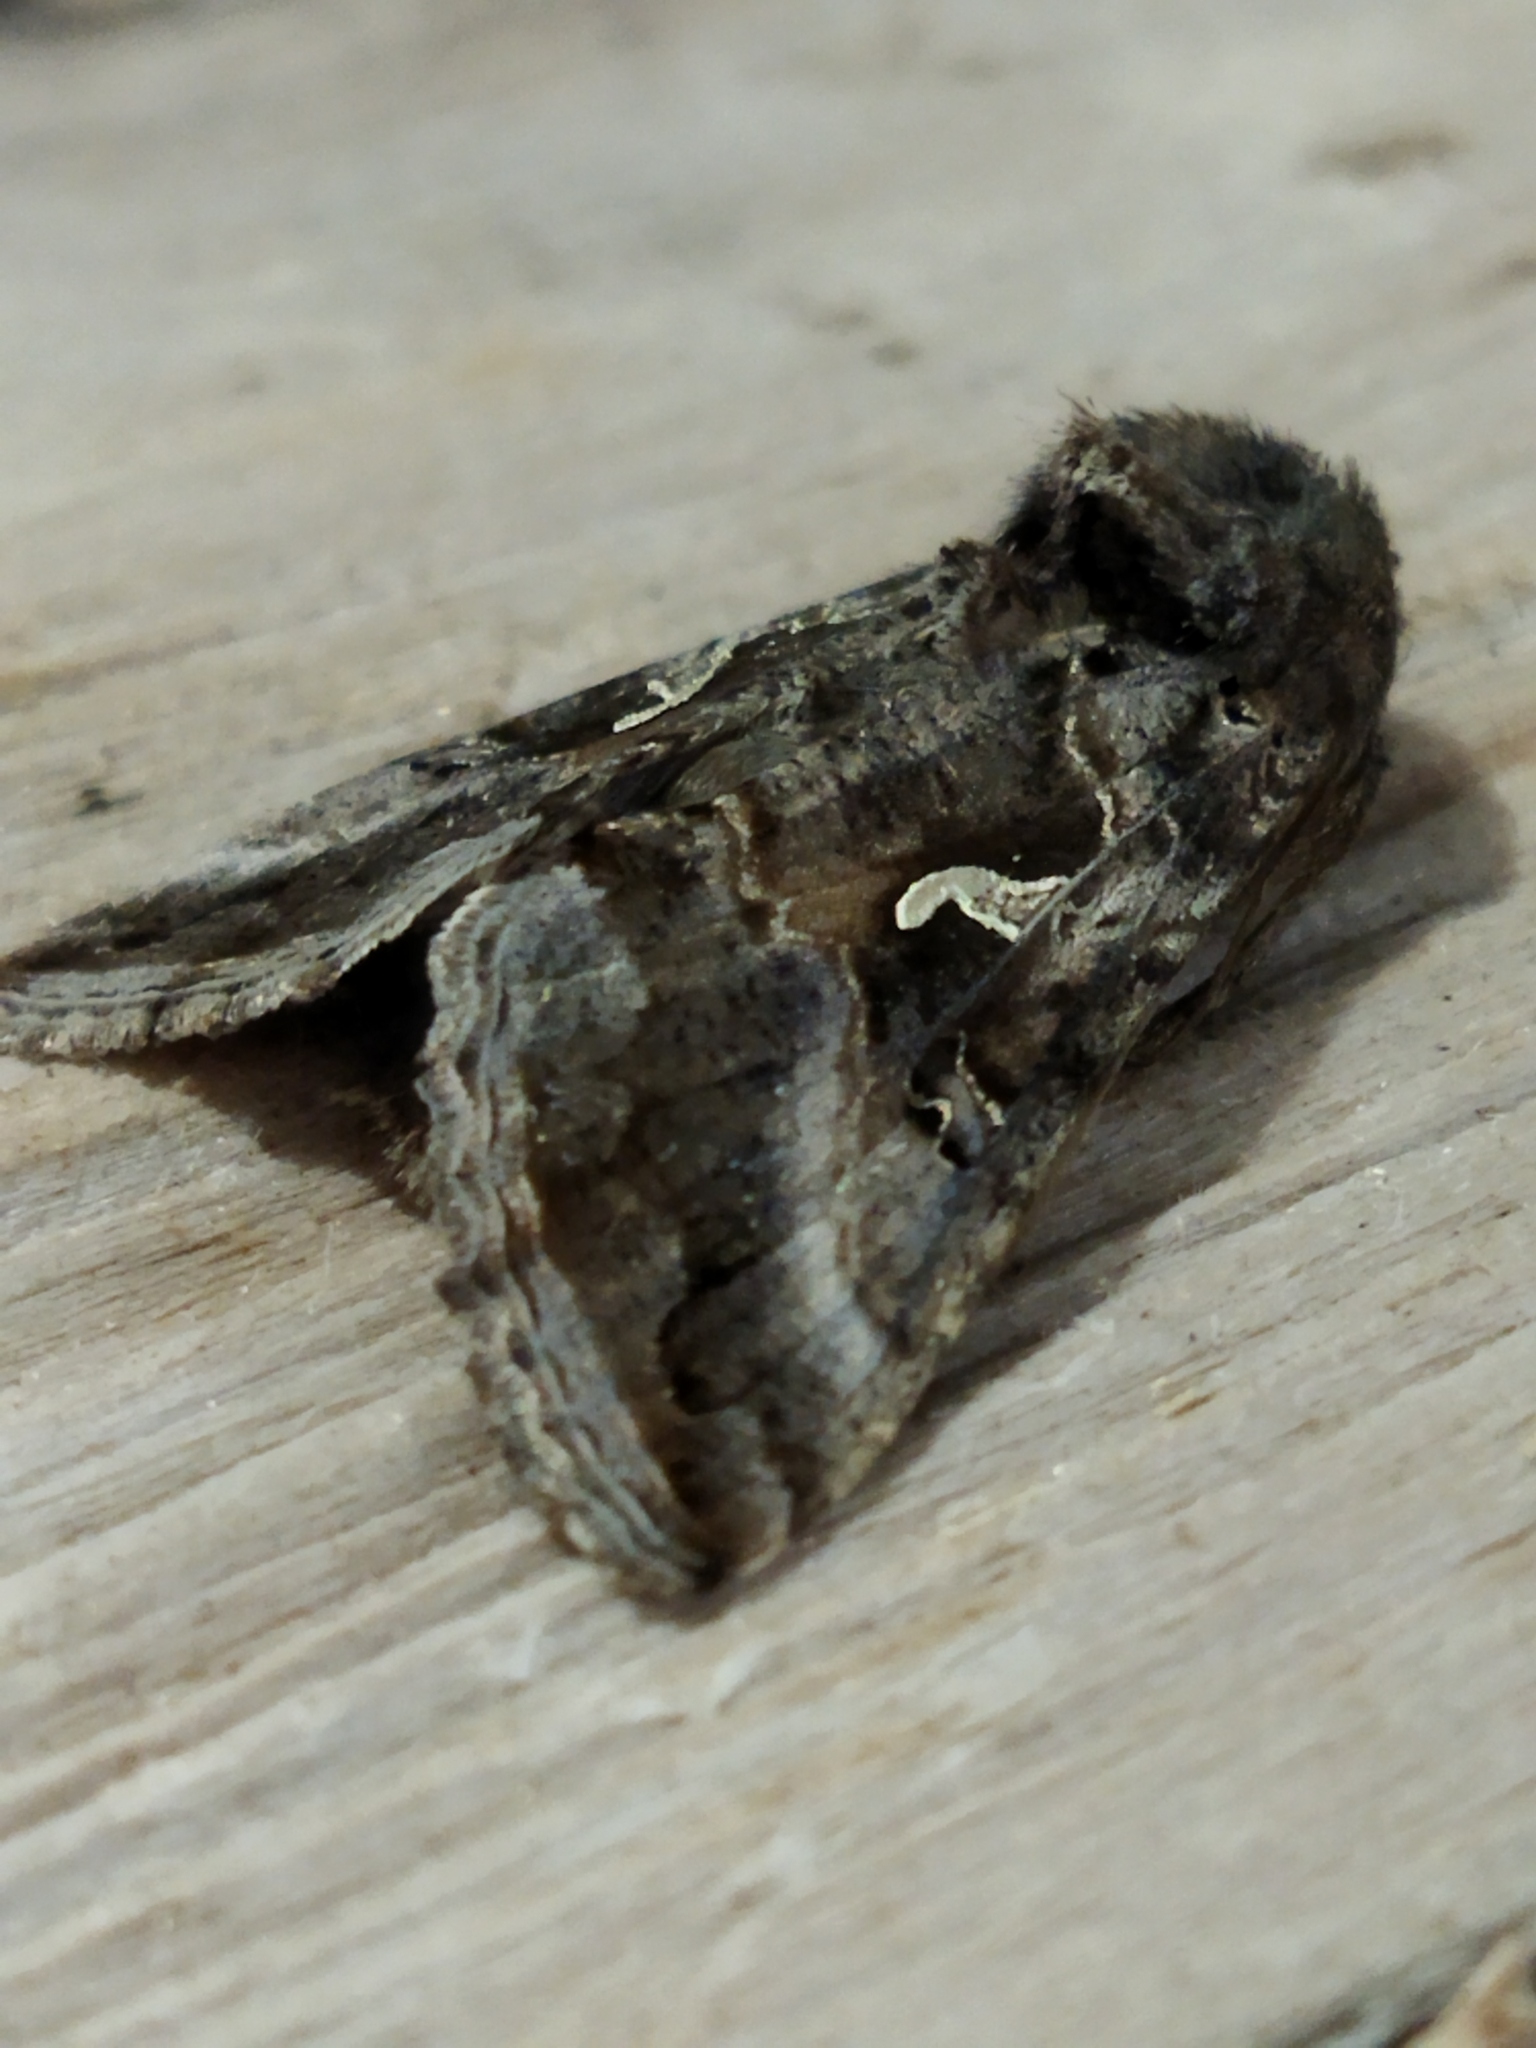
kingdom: Animalia
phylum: Arthropoda
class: Insecta
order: Lepidoptera
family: Noctuidae
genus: Autographa
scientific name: Autographa gamma
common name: Silver y
